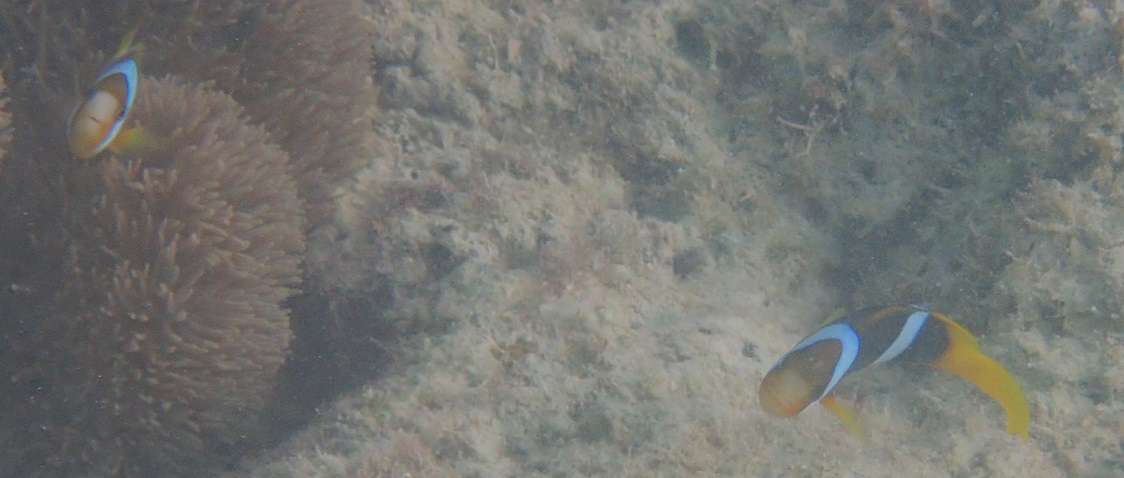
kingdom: Animalia
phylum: Chordata
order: Perciformes
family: Pomacentridae
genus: Amphiprion
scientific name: Amphiprion clarkii
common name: Clark's anemonefish
